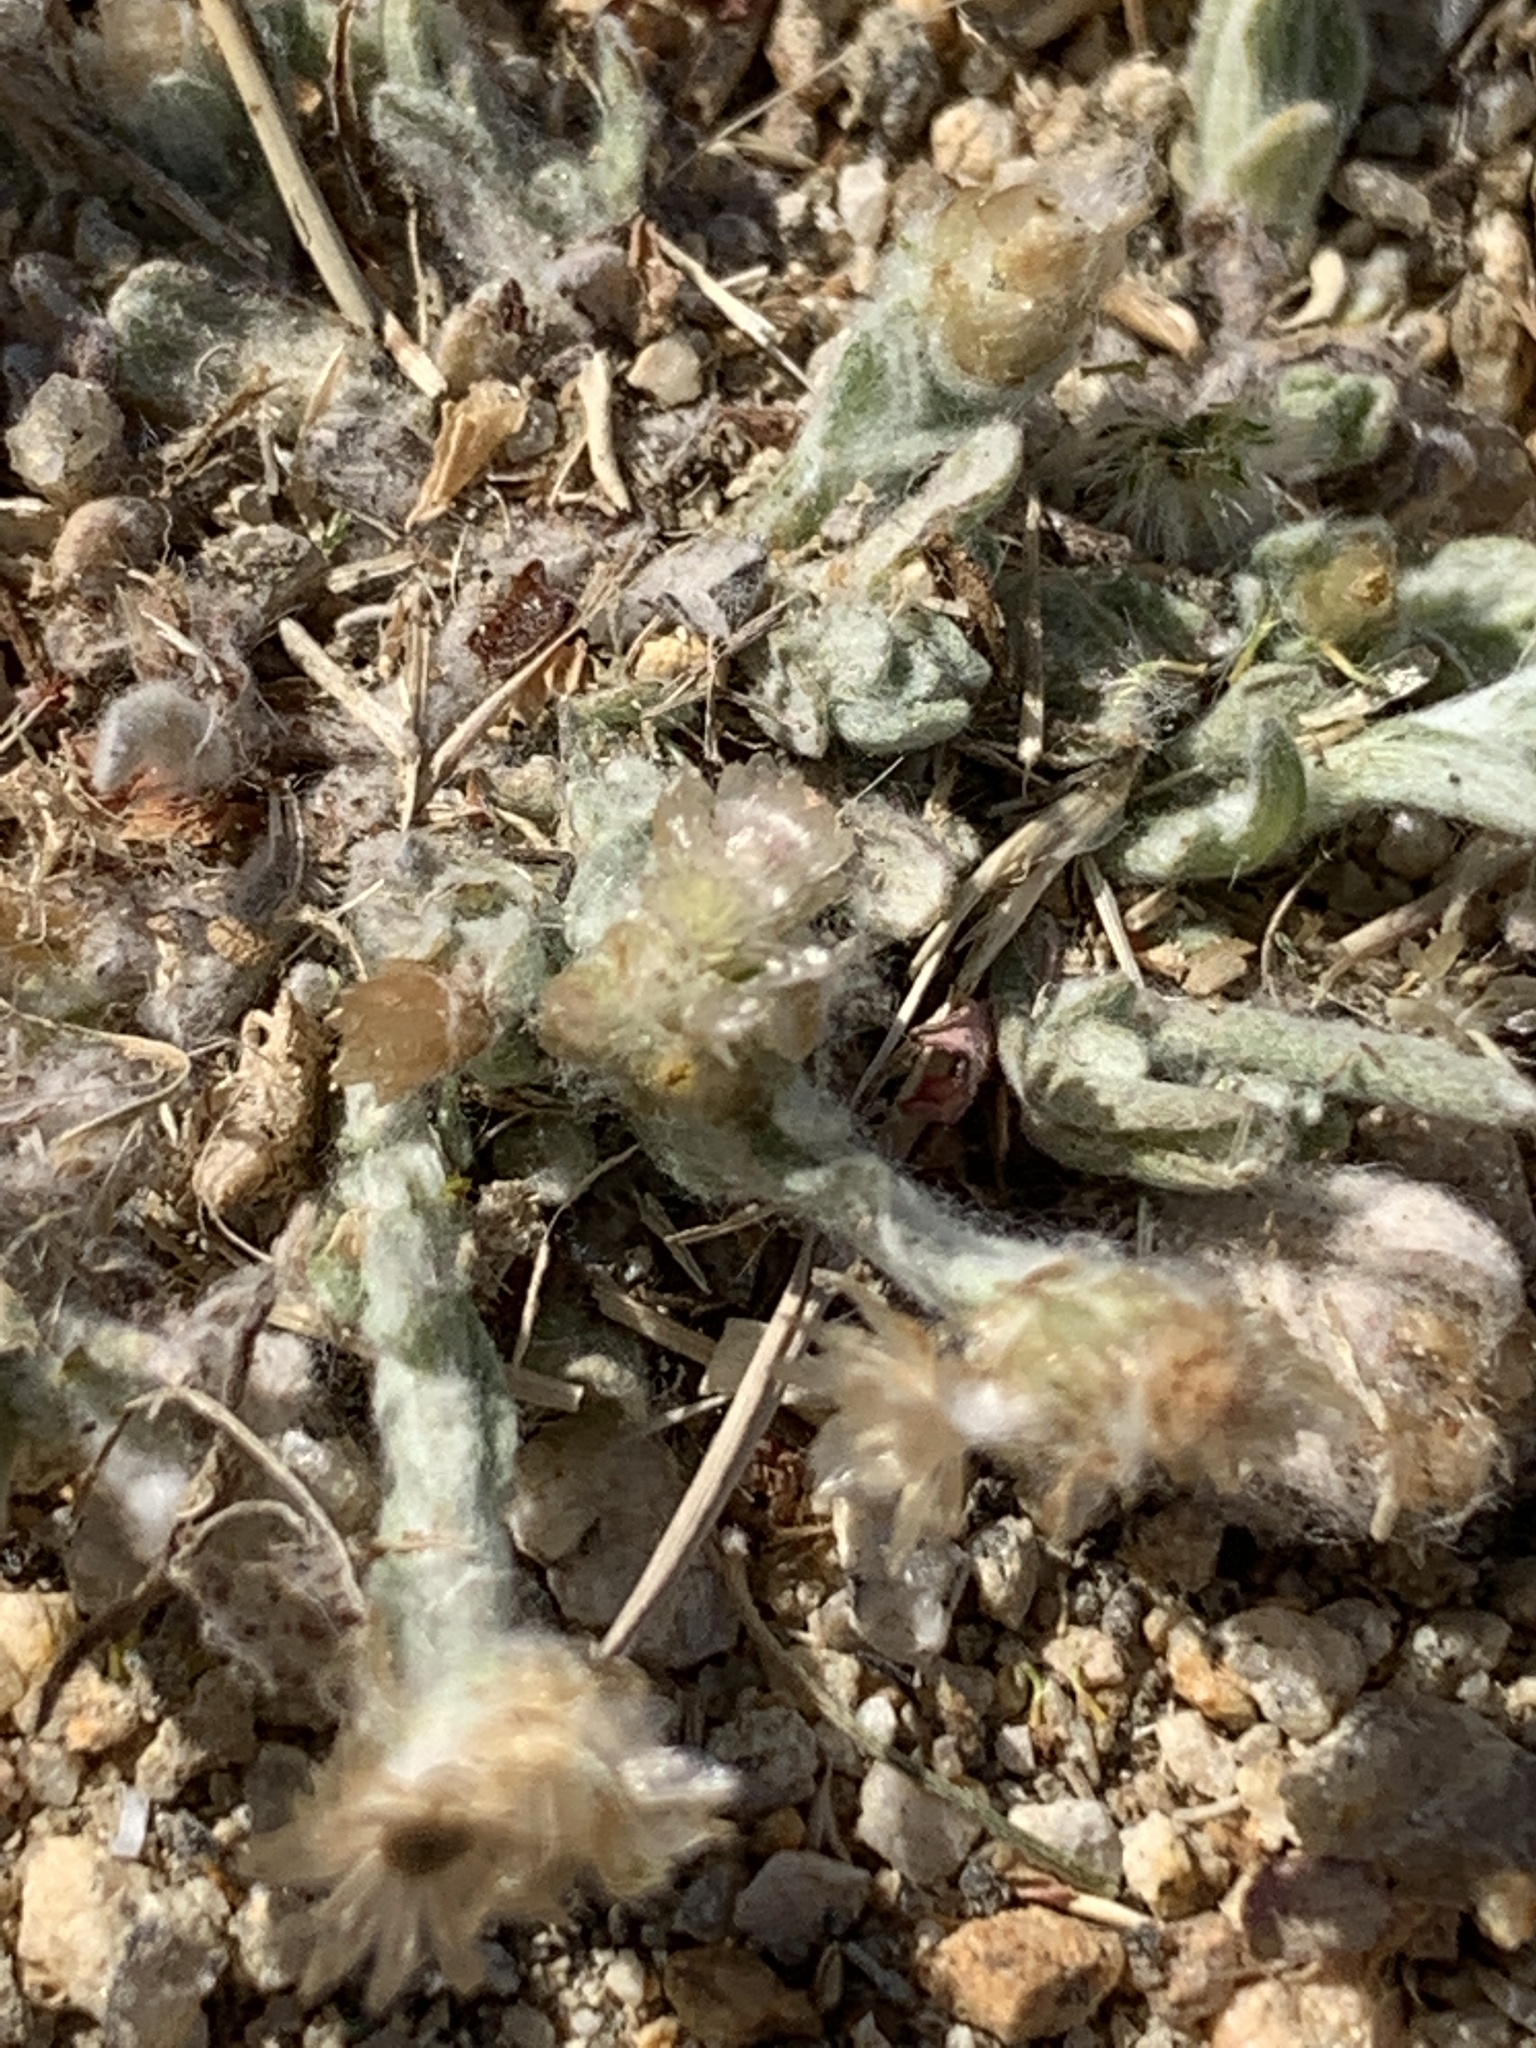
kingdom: Plantae
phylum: Tracheophyta
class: Magnoliopsida
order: Asterales
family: Asteraceae
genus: Helichrysum
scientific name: Helichrysum luteoalbum
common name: Daisy
